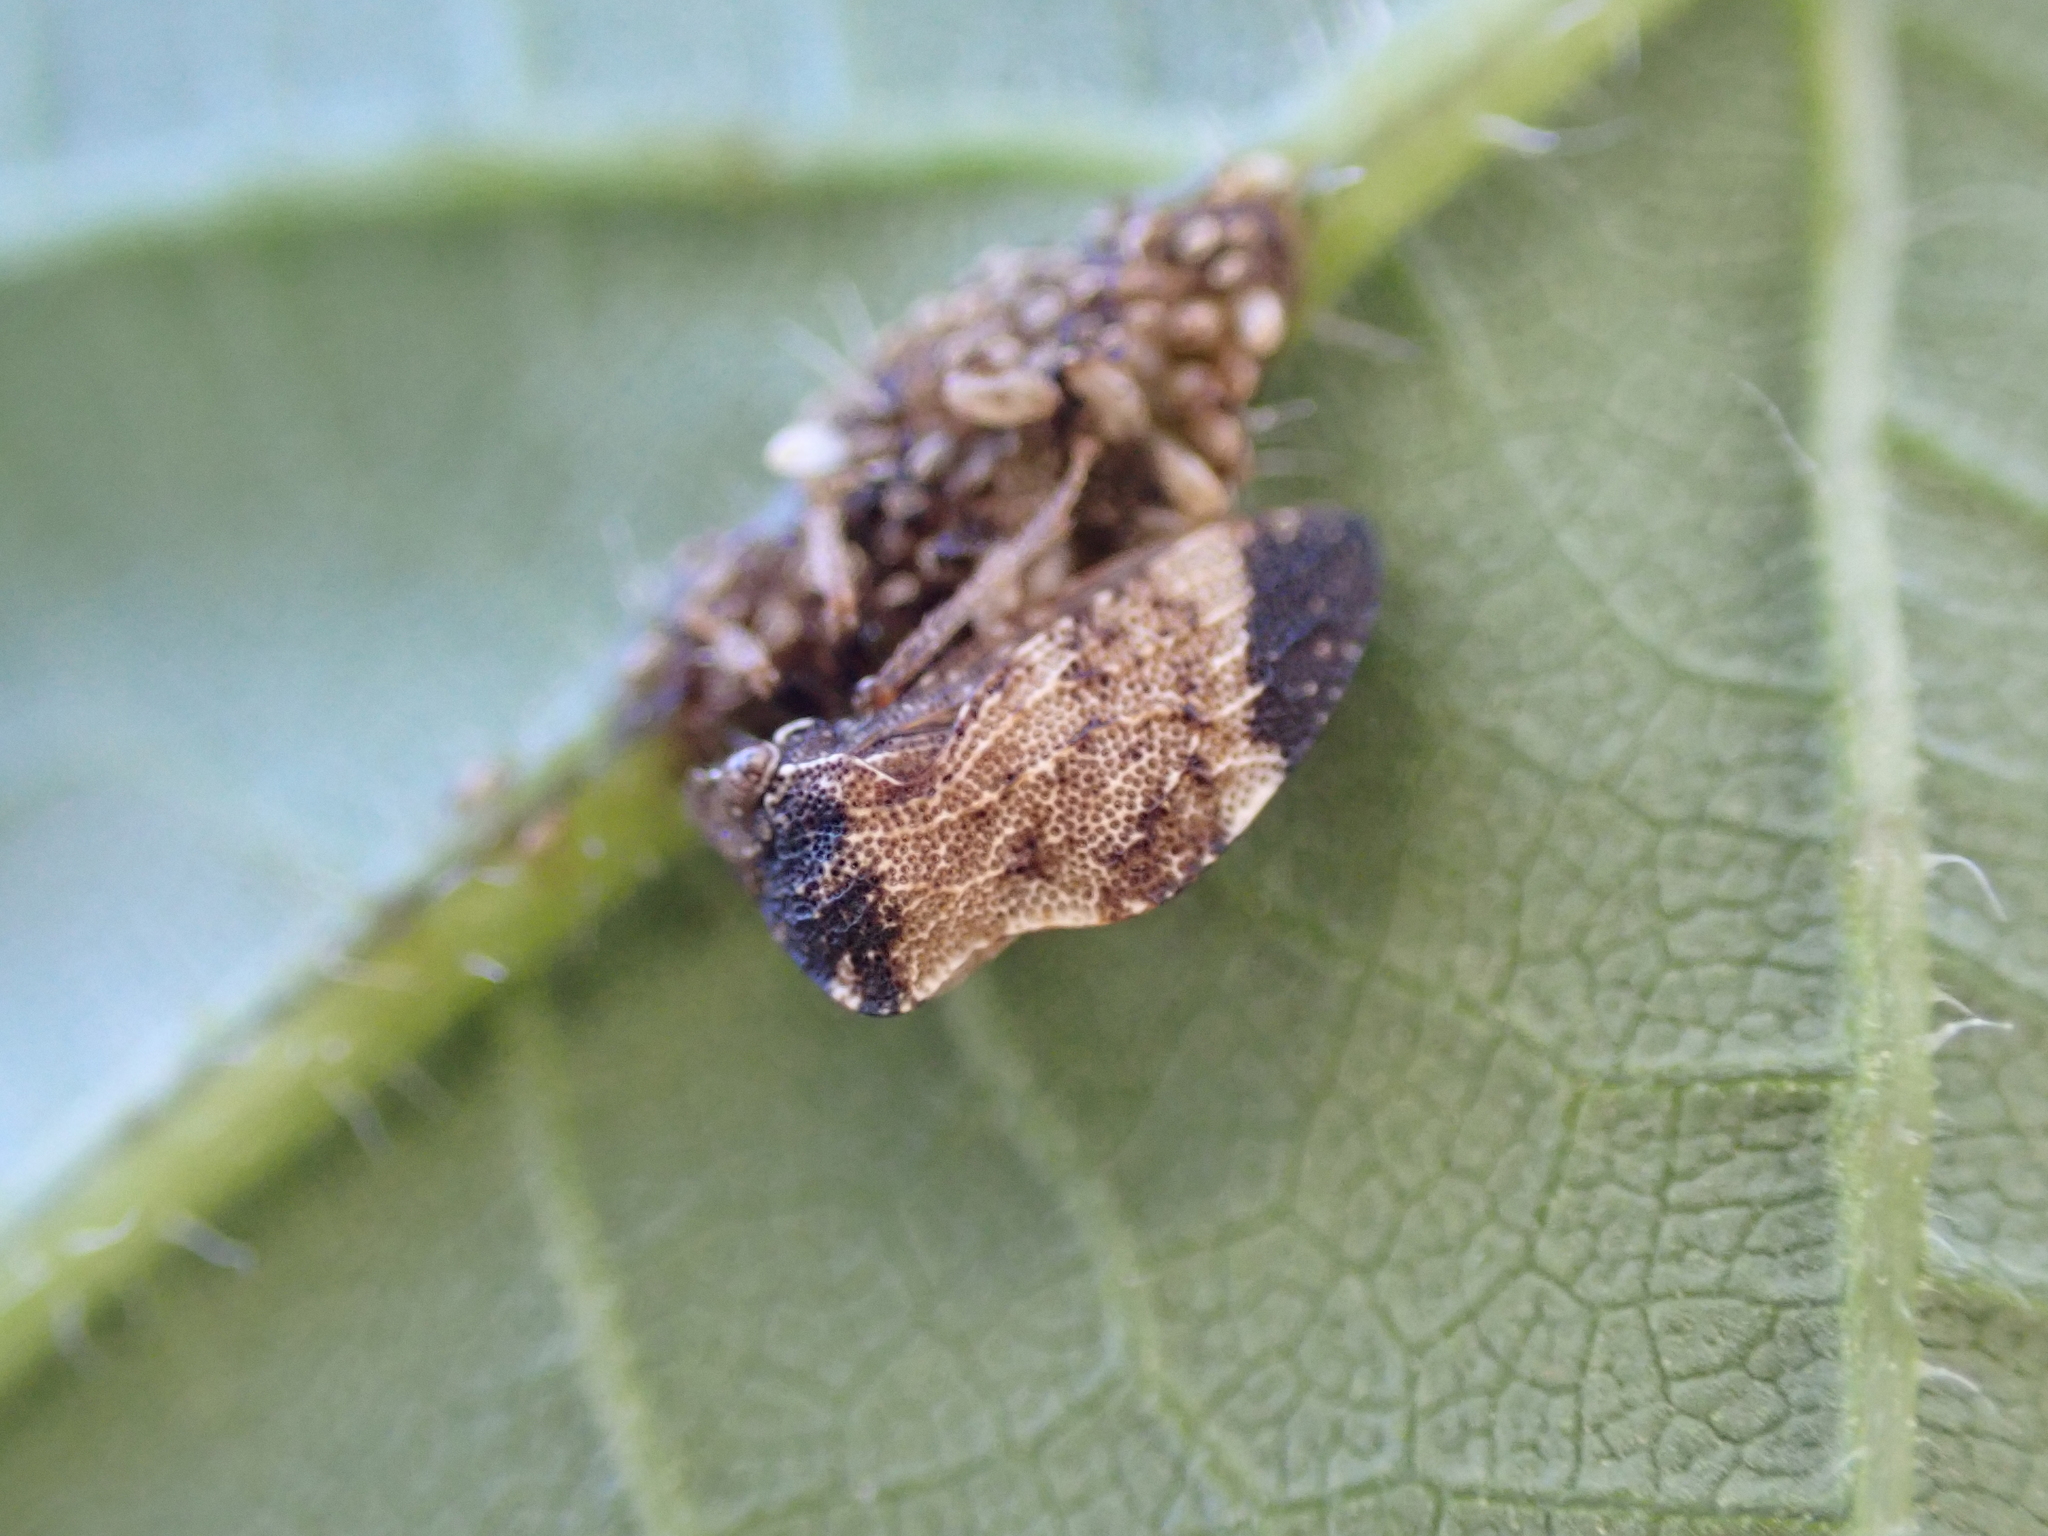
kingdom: Animalia
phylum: Arthropoda
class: Insecta
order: Hemiptera
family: Membracidae
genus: Publilia
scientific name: Publilia concava
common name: Aster treehopper
